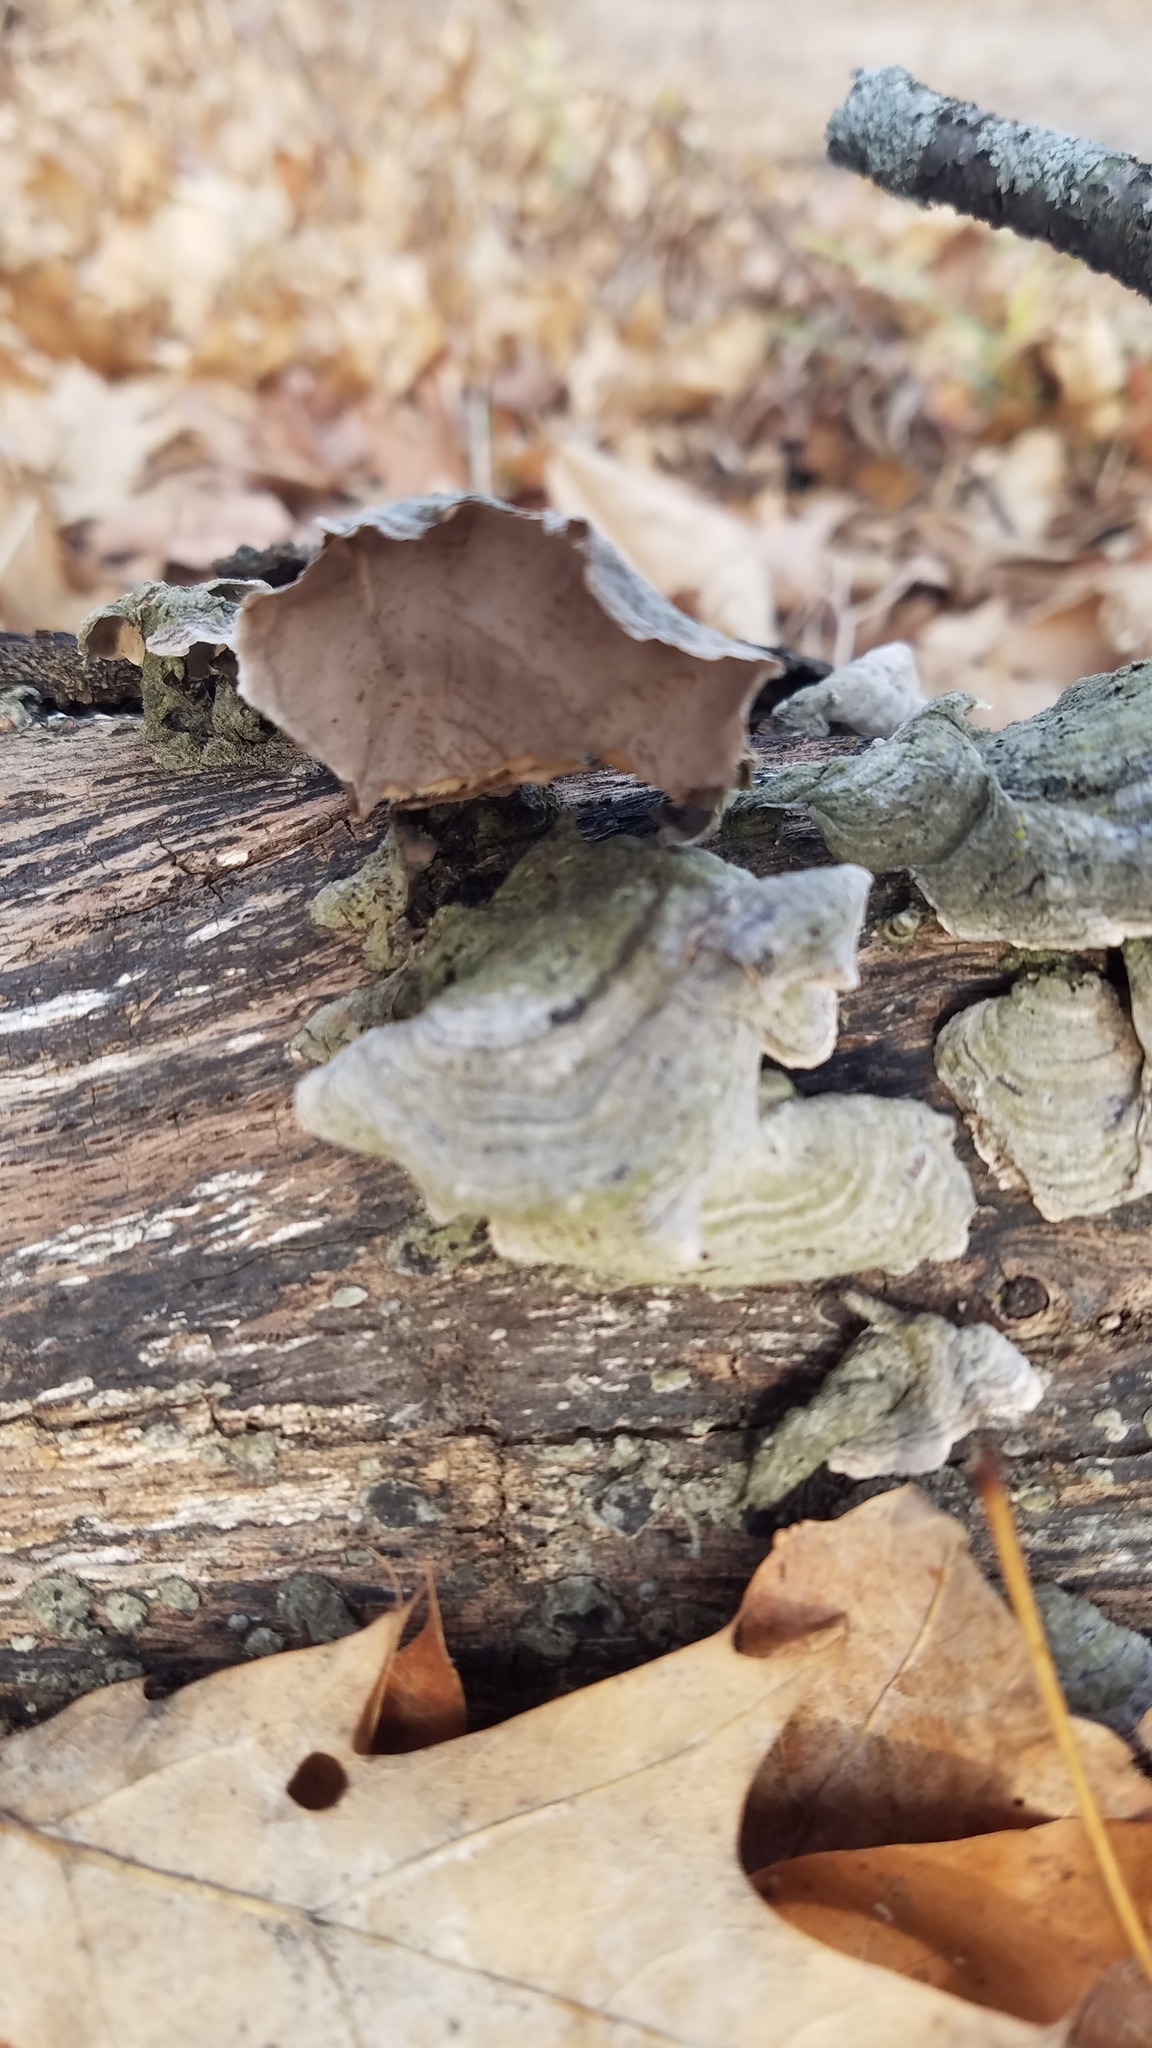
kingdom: Fungi
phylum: Basidiomycota
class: Agaricomycetes
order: Russulales
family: Stereaceae
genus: Stereum
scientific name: Stereum ostrea
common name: False turkeytail
